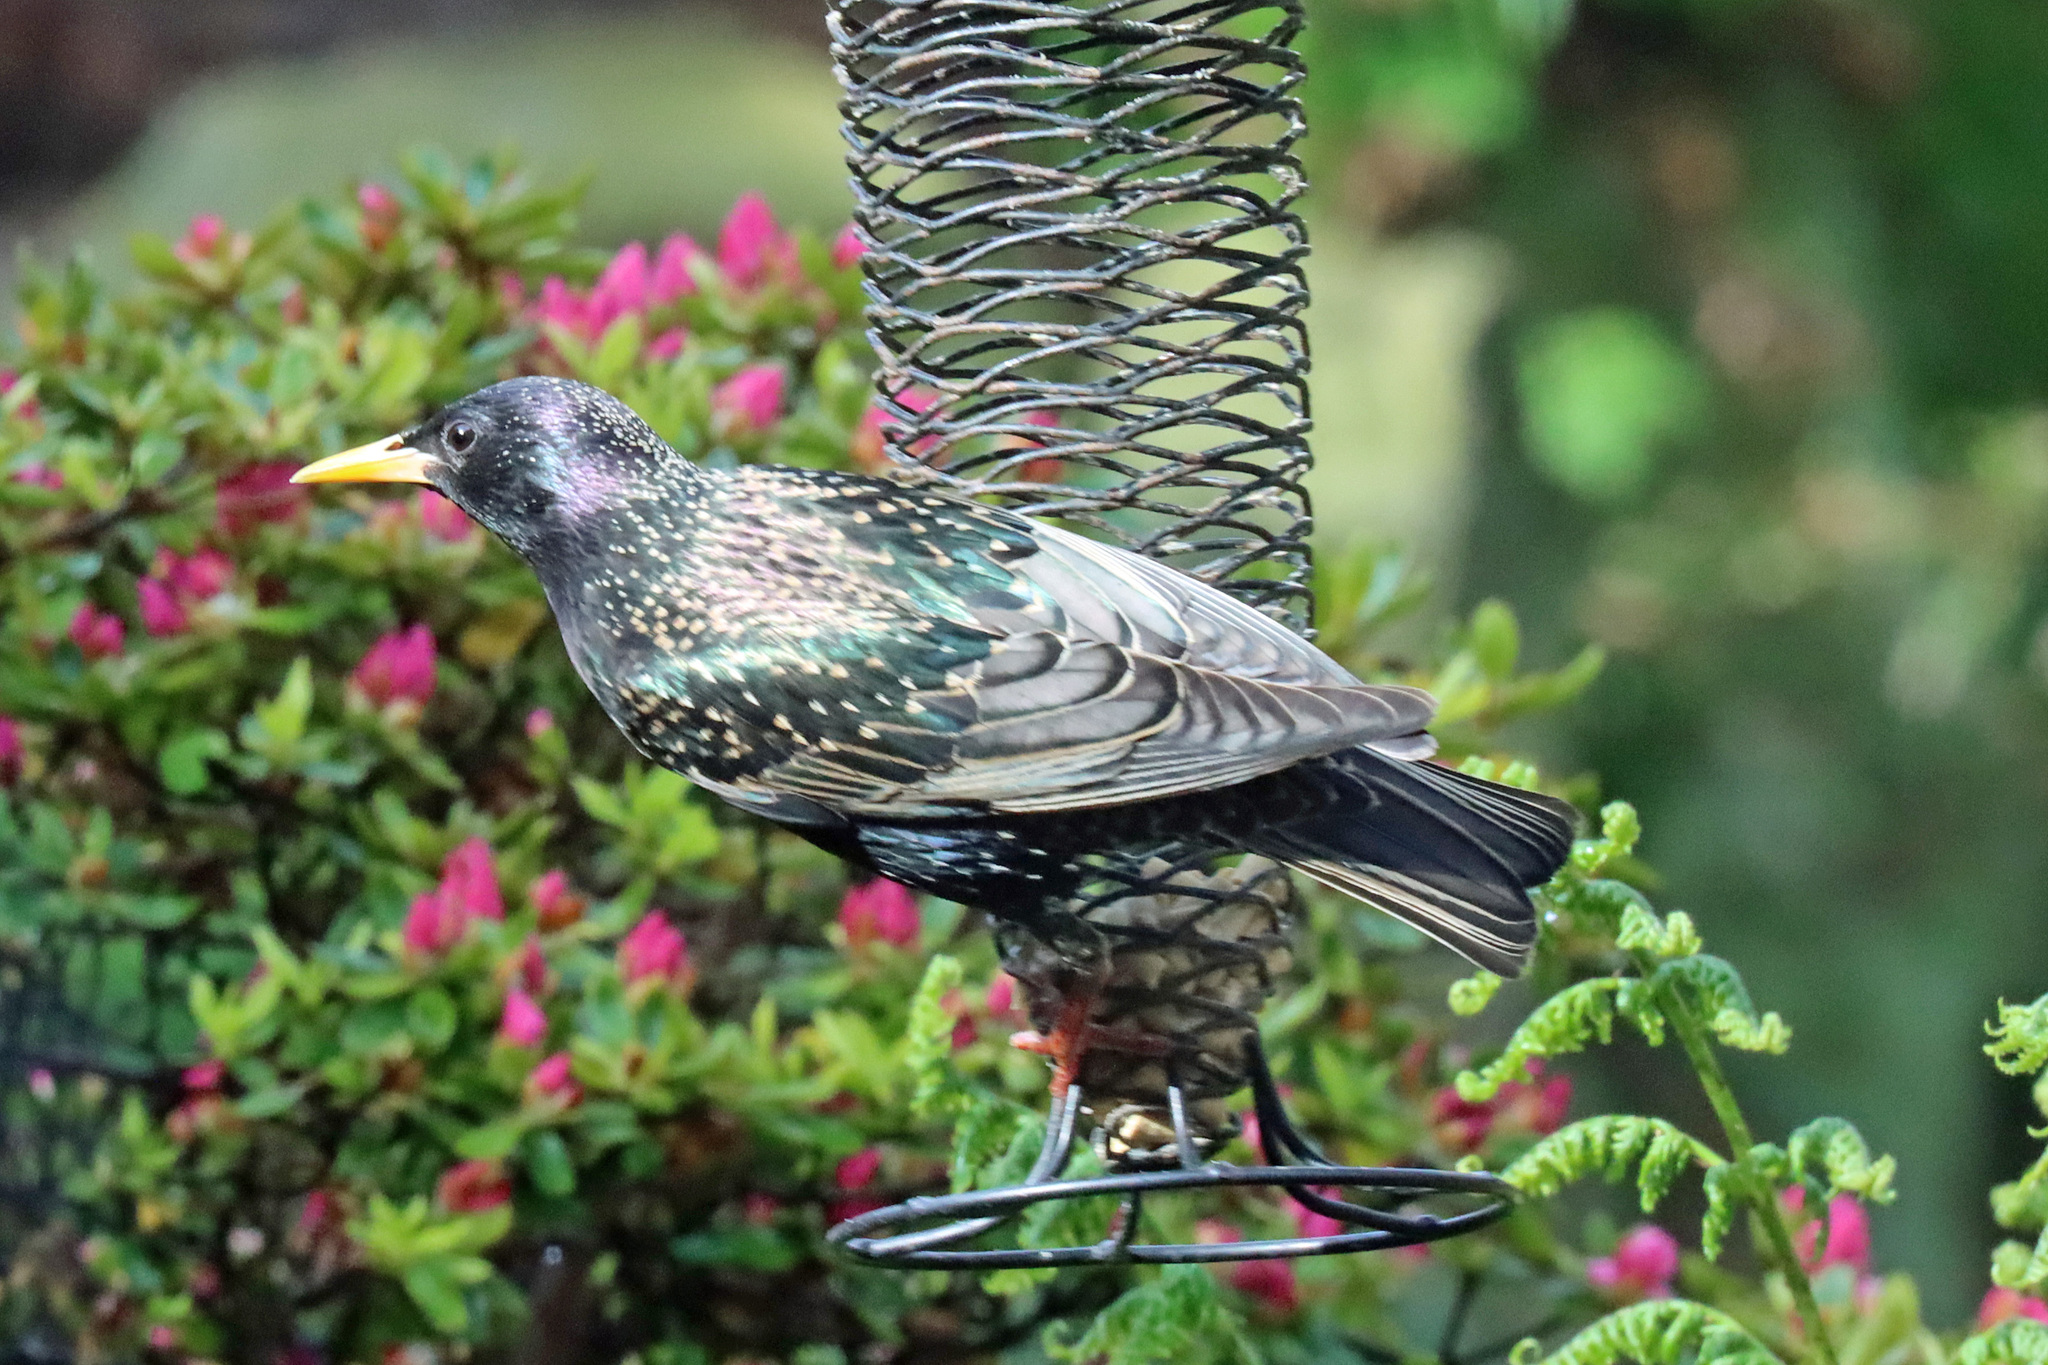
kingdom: Animalia
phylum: Chordata
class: Aves
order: Passeriformes
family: Sturnidae
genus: Sturnus
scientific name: Sturnus vulgaris
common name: Common starling
